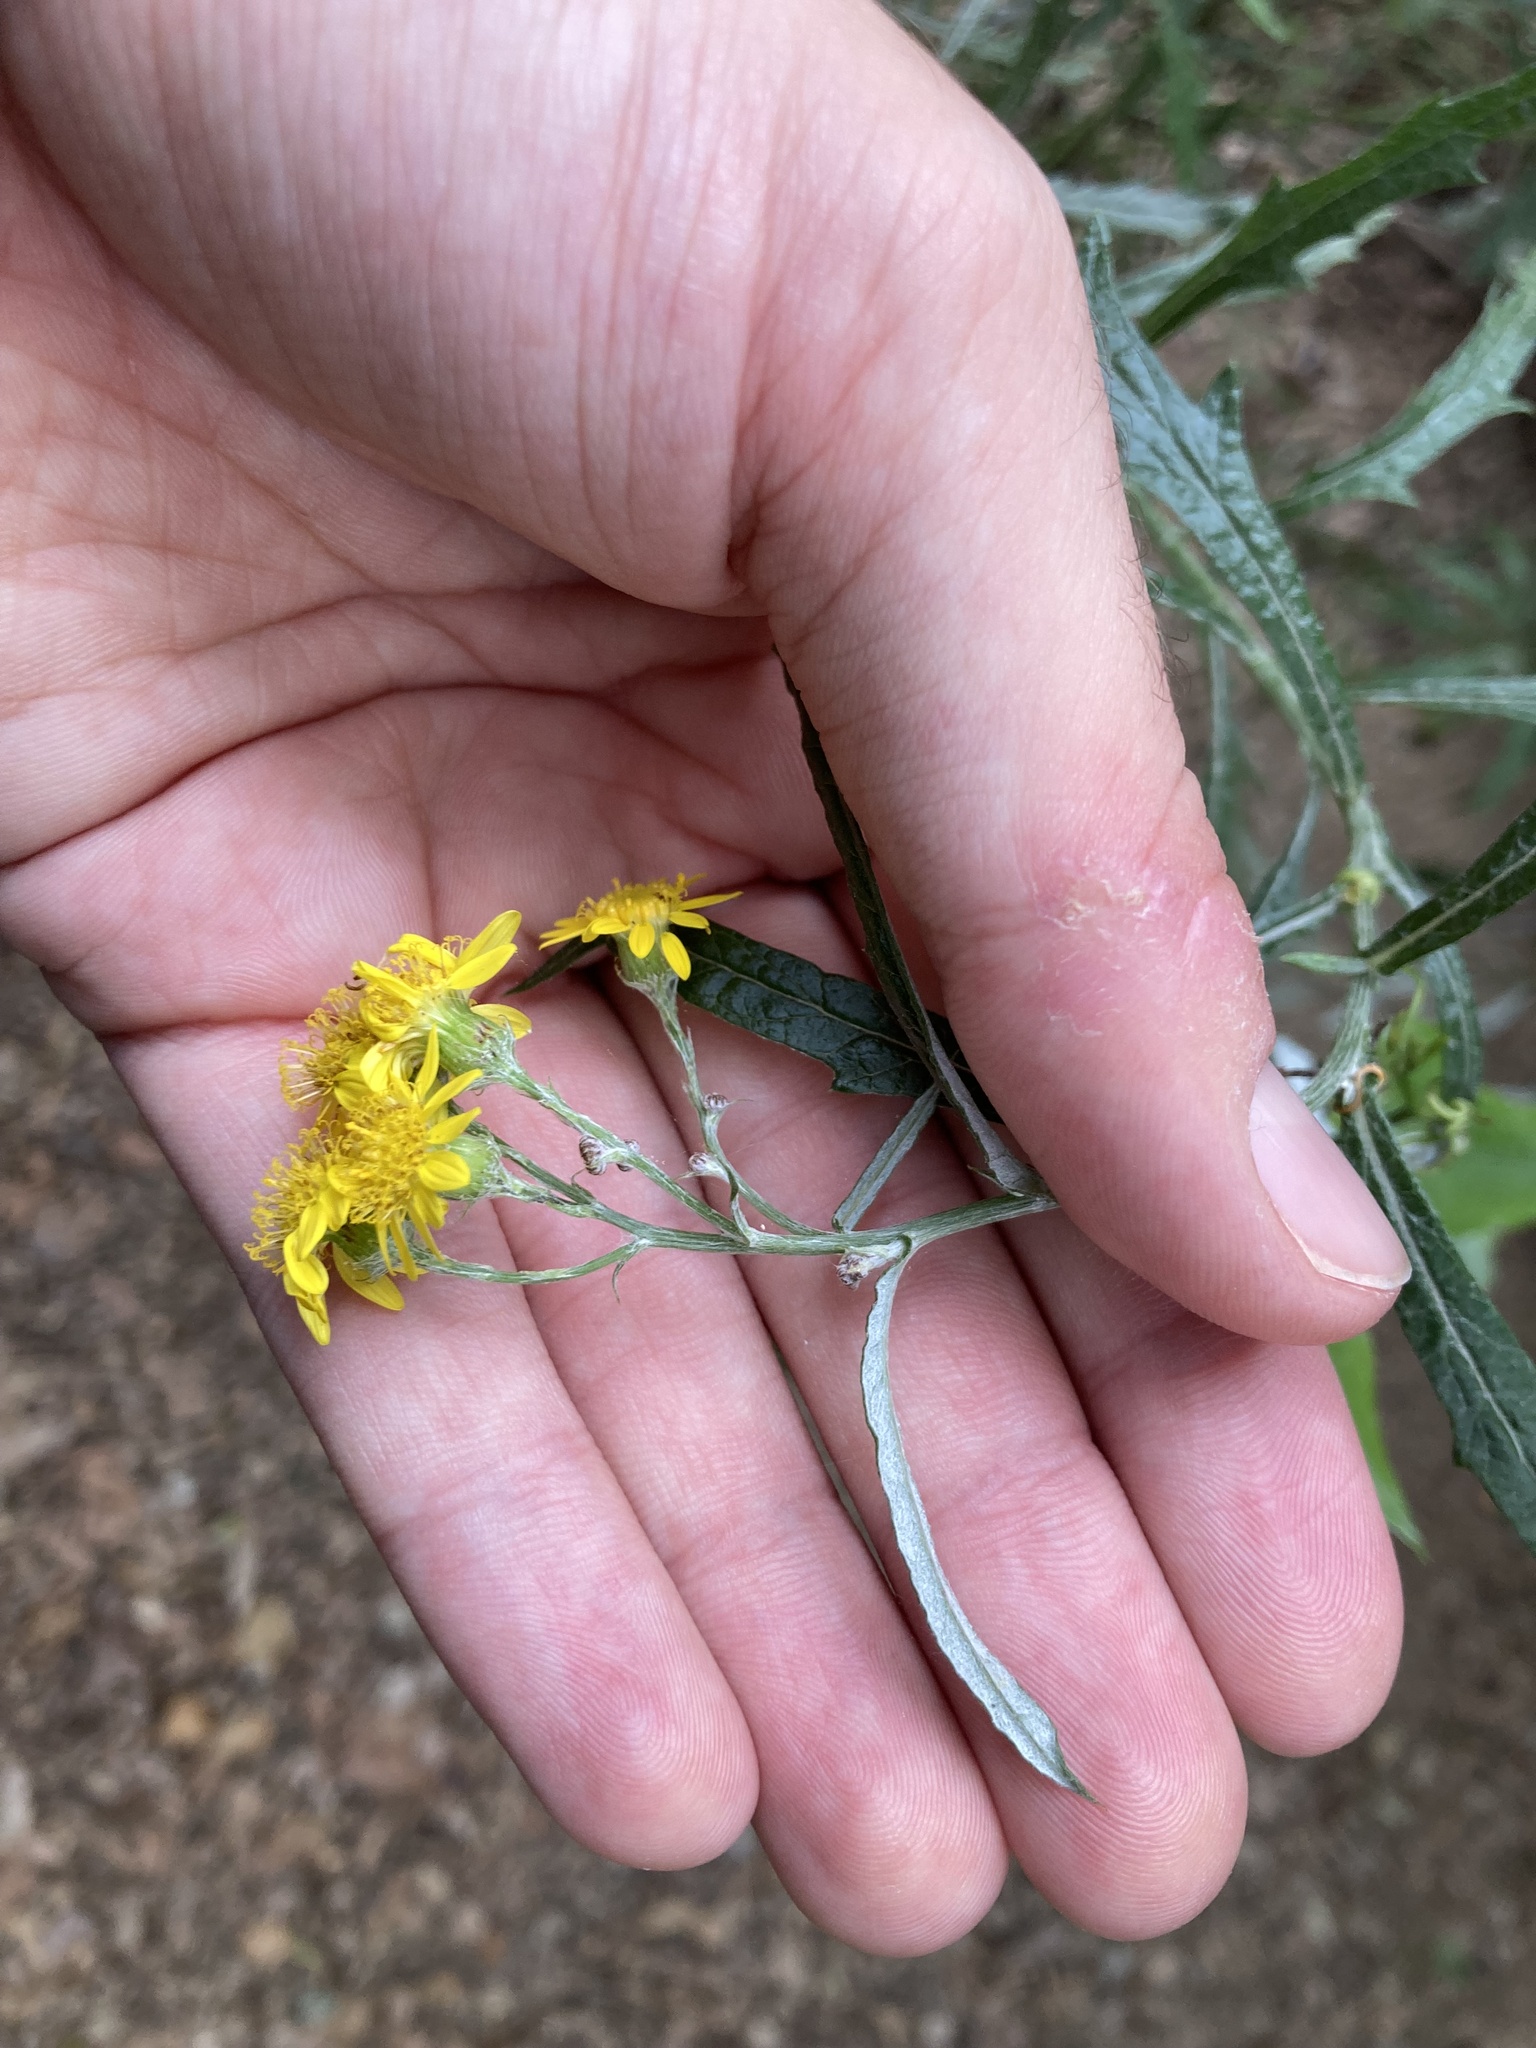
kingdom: Plantae
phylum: Tracheophyta
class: Magnoliopsida
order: Asterales
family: Asteraceae
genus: Senecio
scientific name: Senecio pterophorus
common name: Shoddy ragwort
